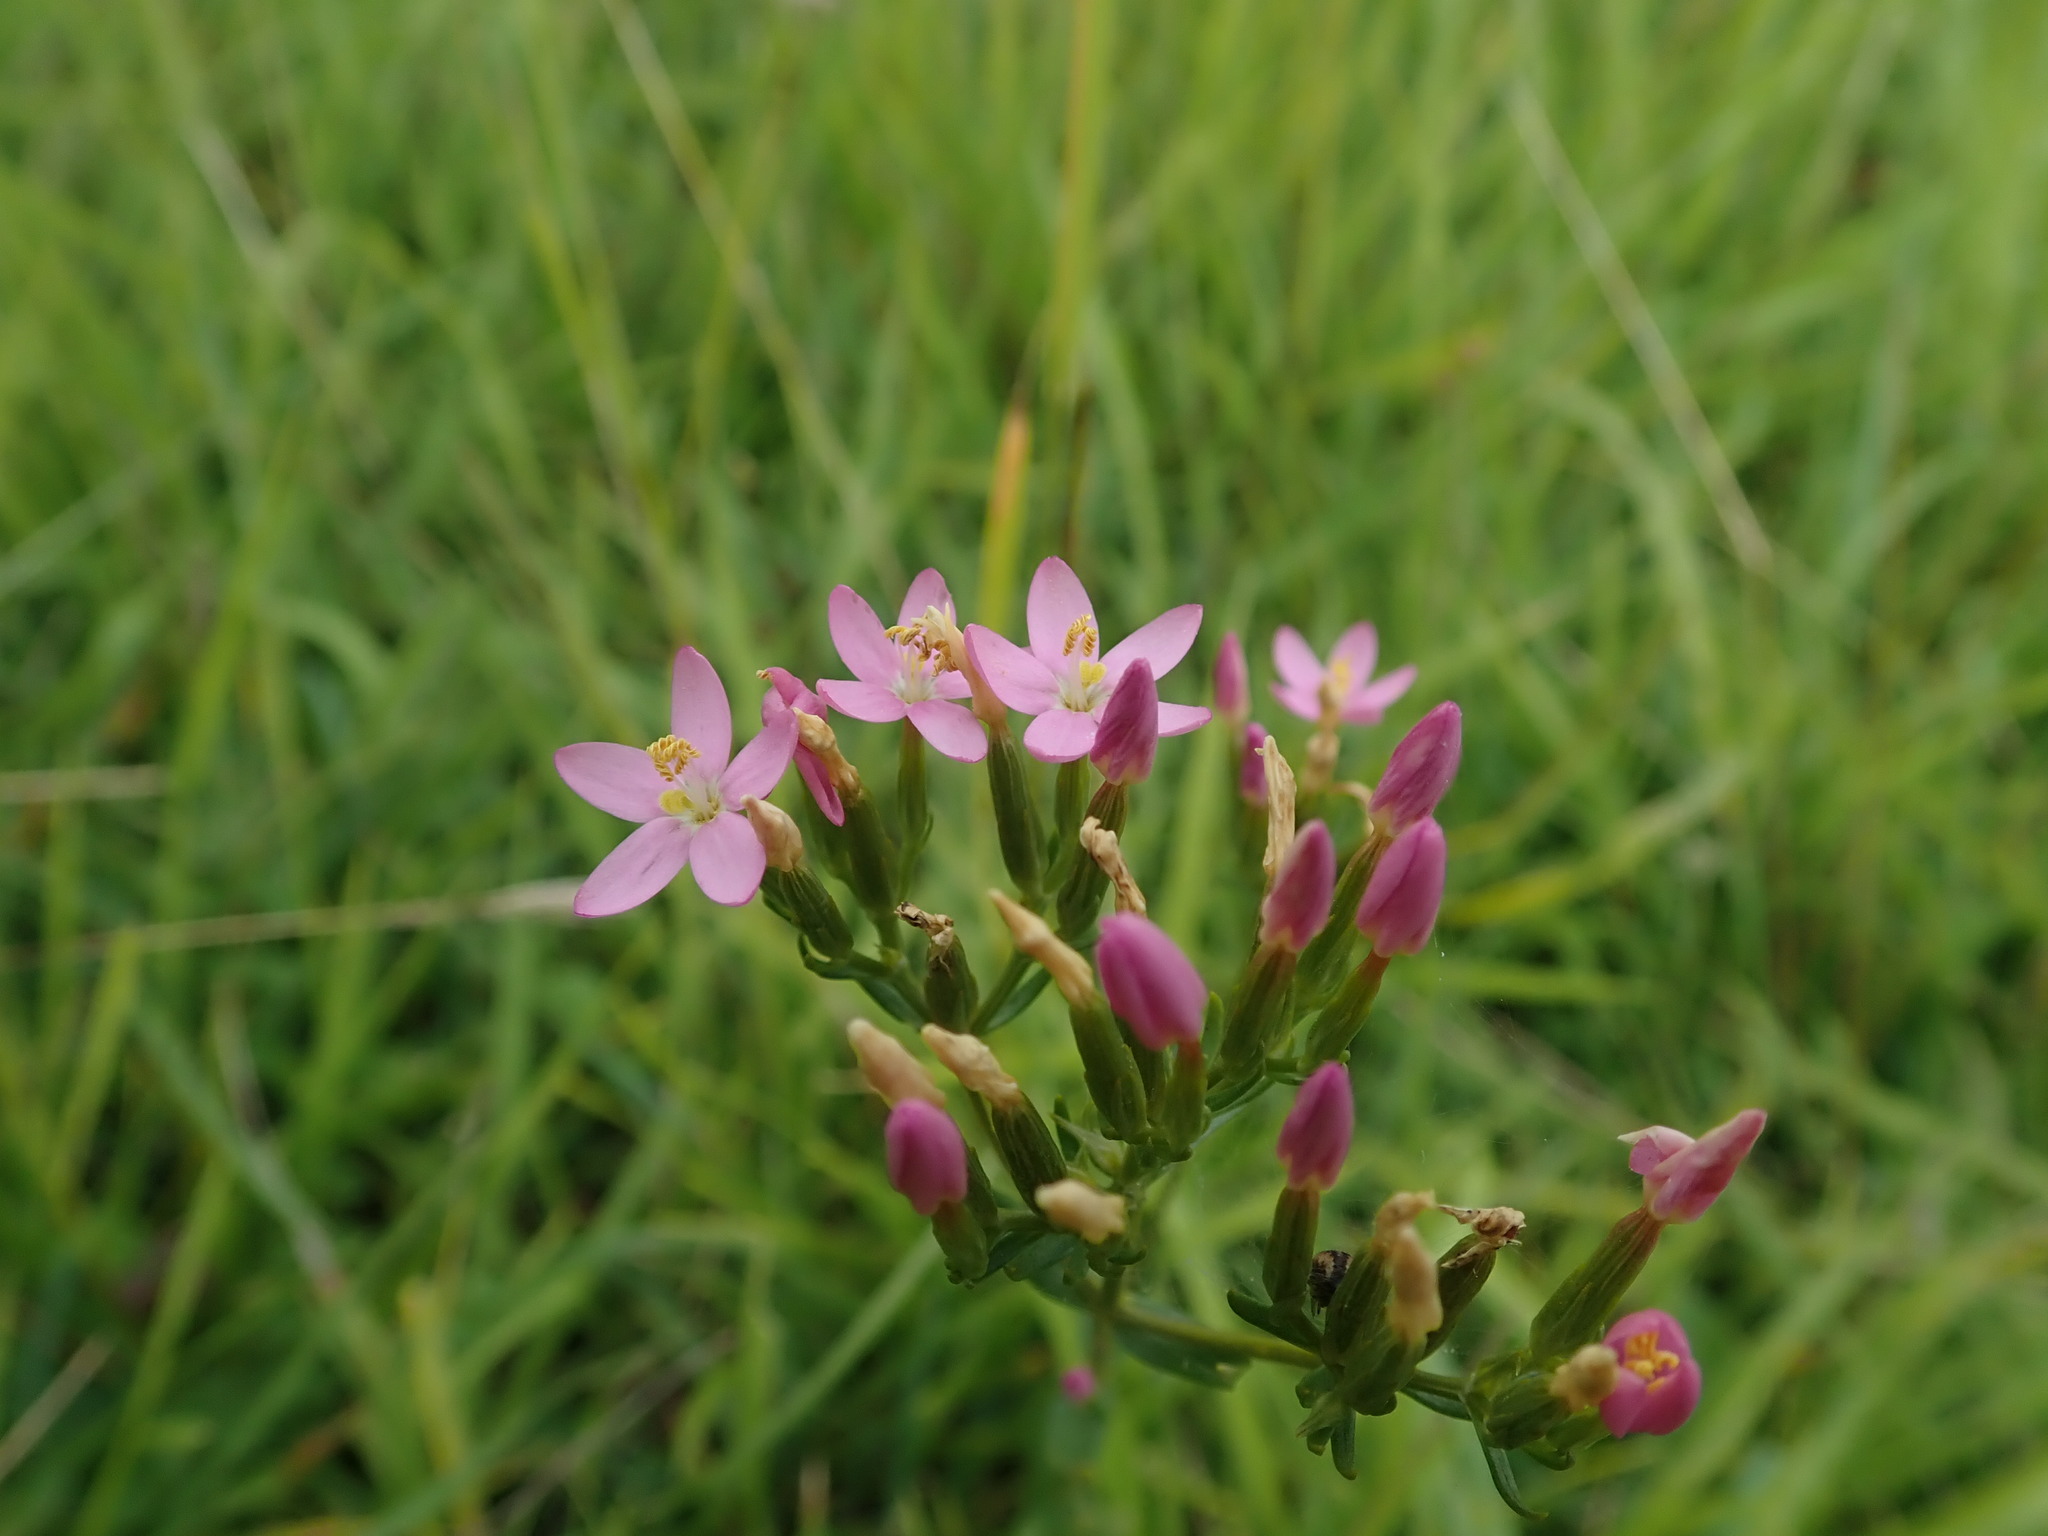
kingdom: Plantae
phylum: Tracheophyta
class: Magnoliopsida
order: Gentianales
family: Gentianaceae
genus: Centaurium
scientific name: Centaurium erythraea
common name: Common centaury
